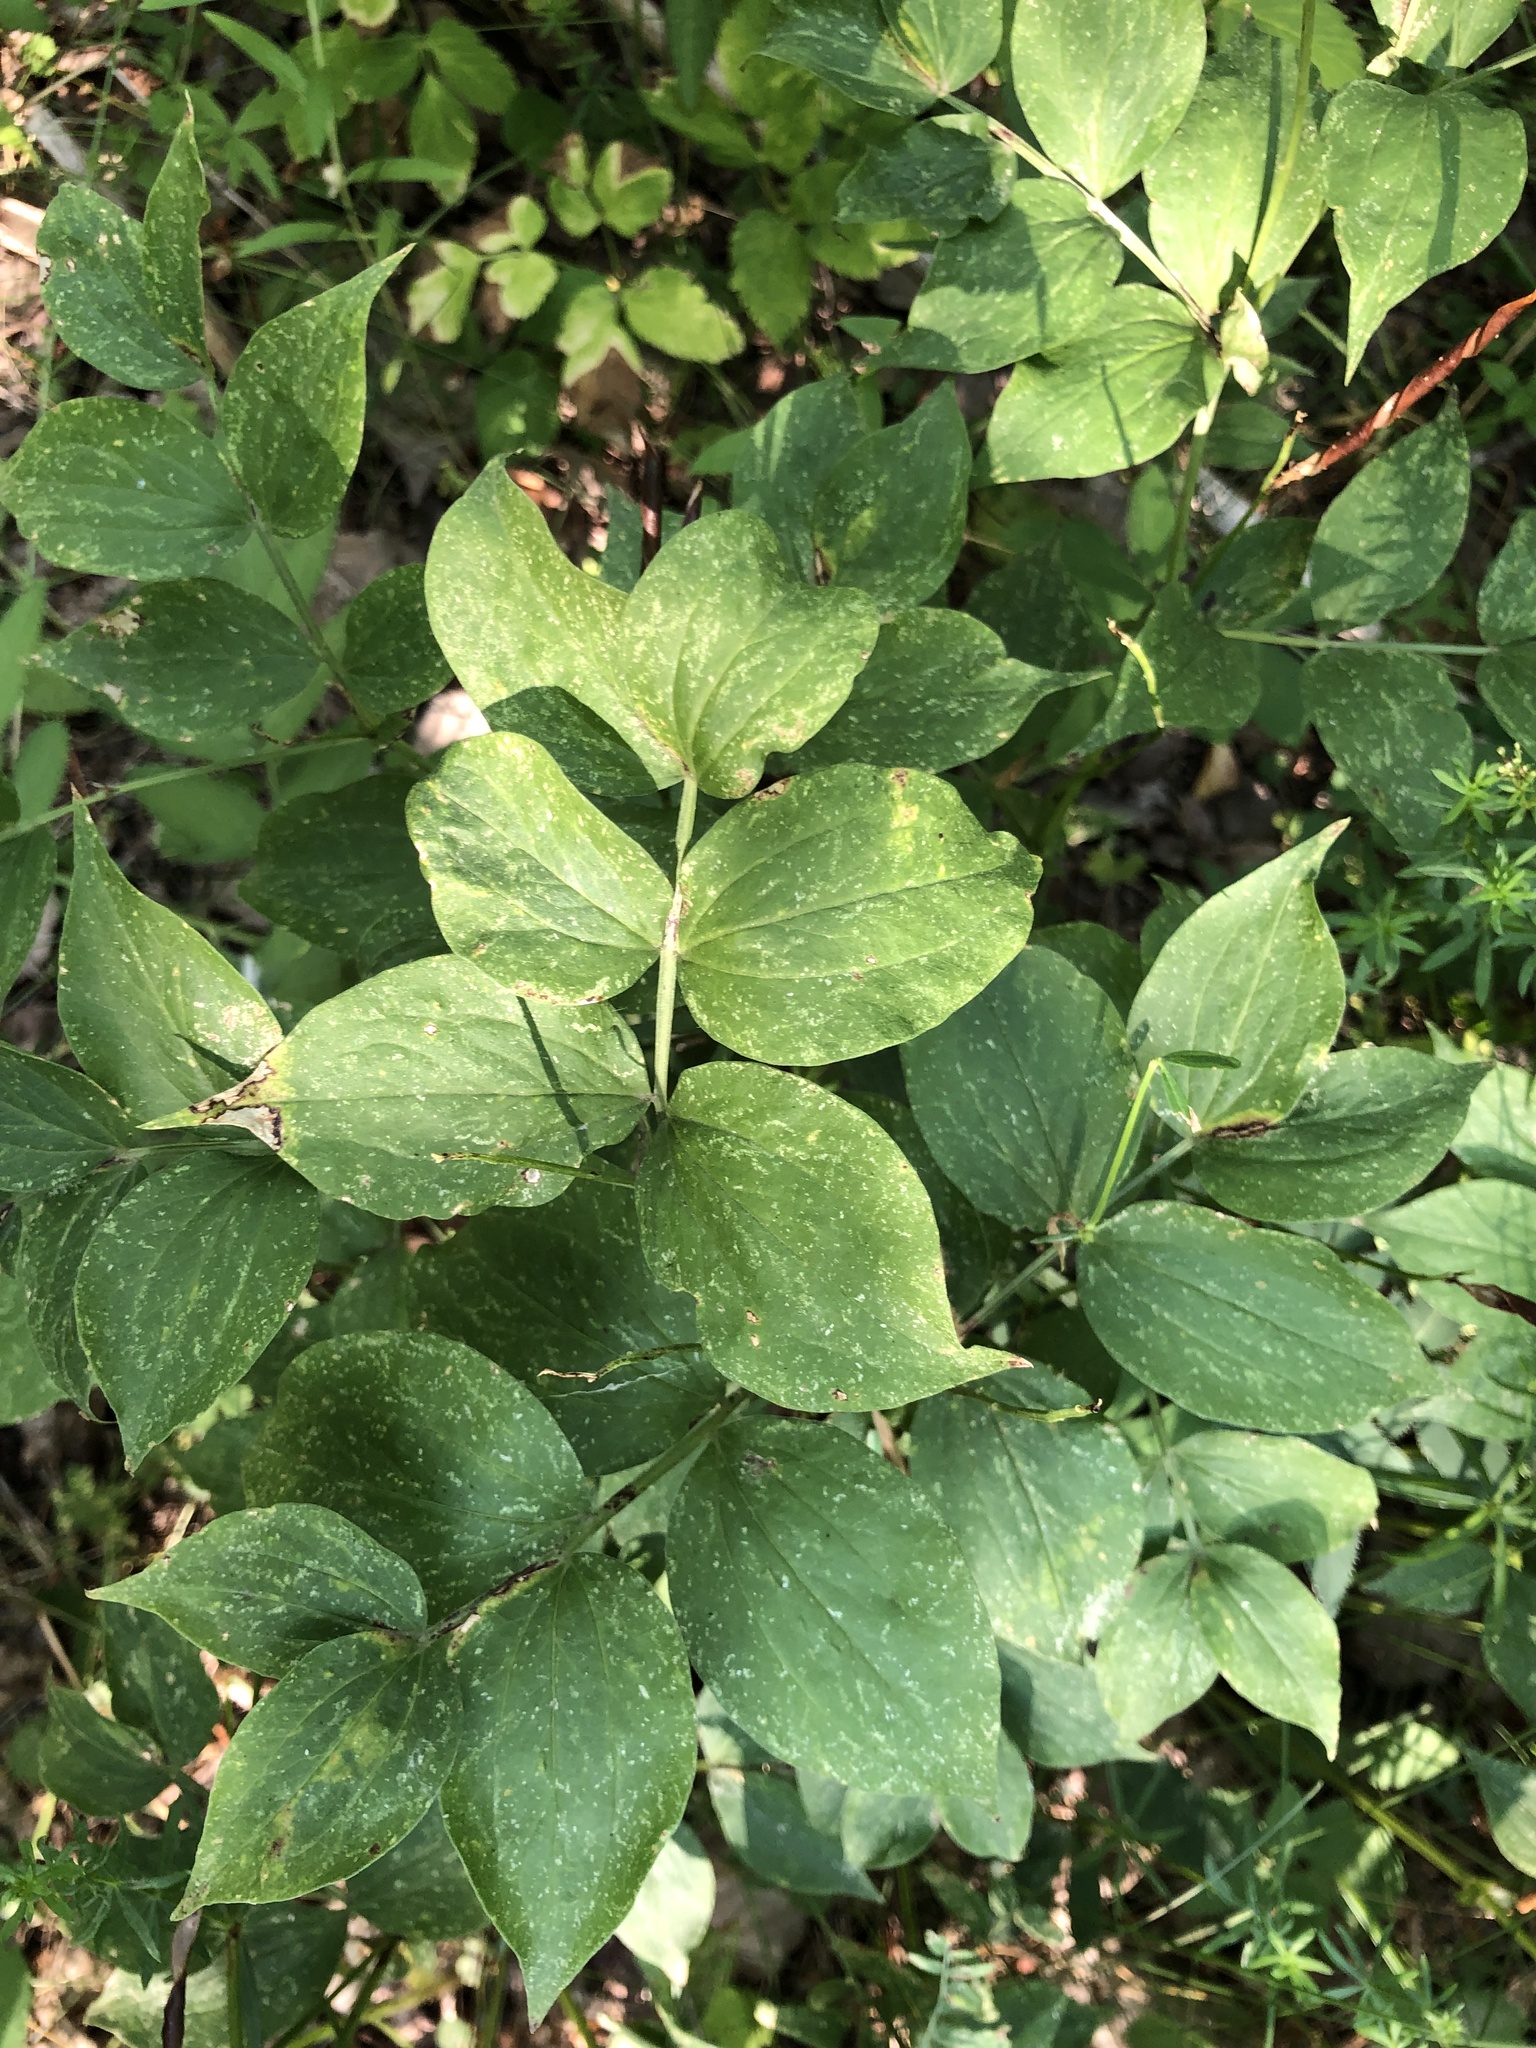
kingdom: Plantae
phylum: Tracheophyta
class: Magnoliopsida
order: Fabales
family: Fabaceae
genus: Lathyrus
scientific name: Lathyrus vernus
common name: Spring pea
